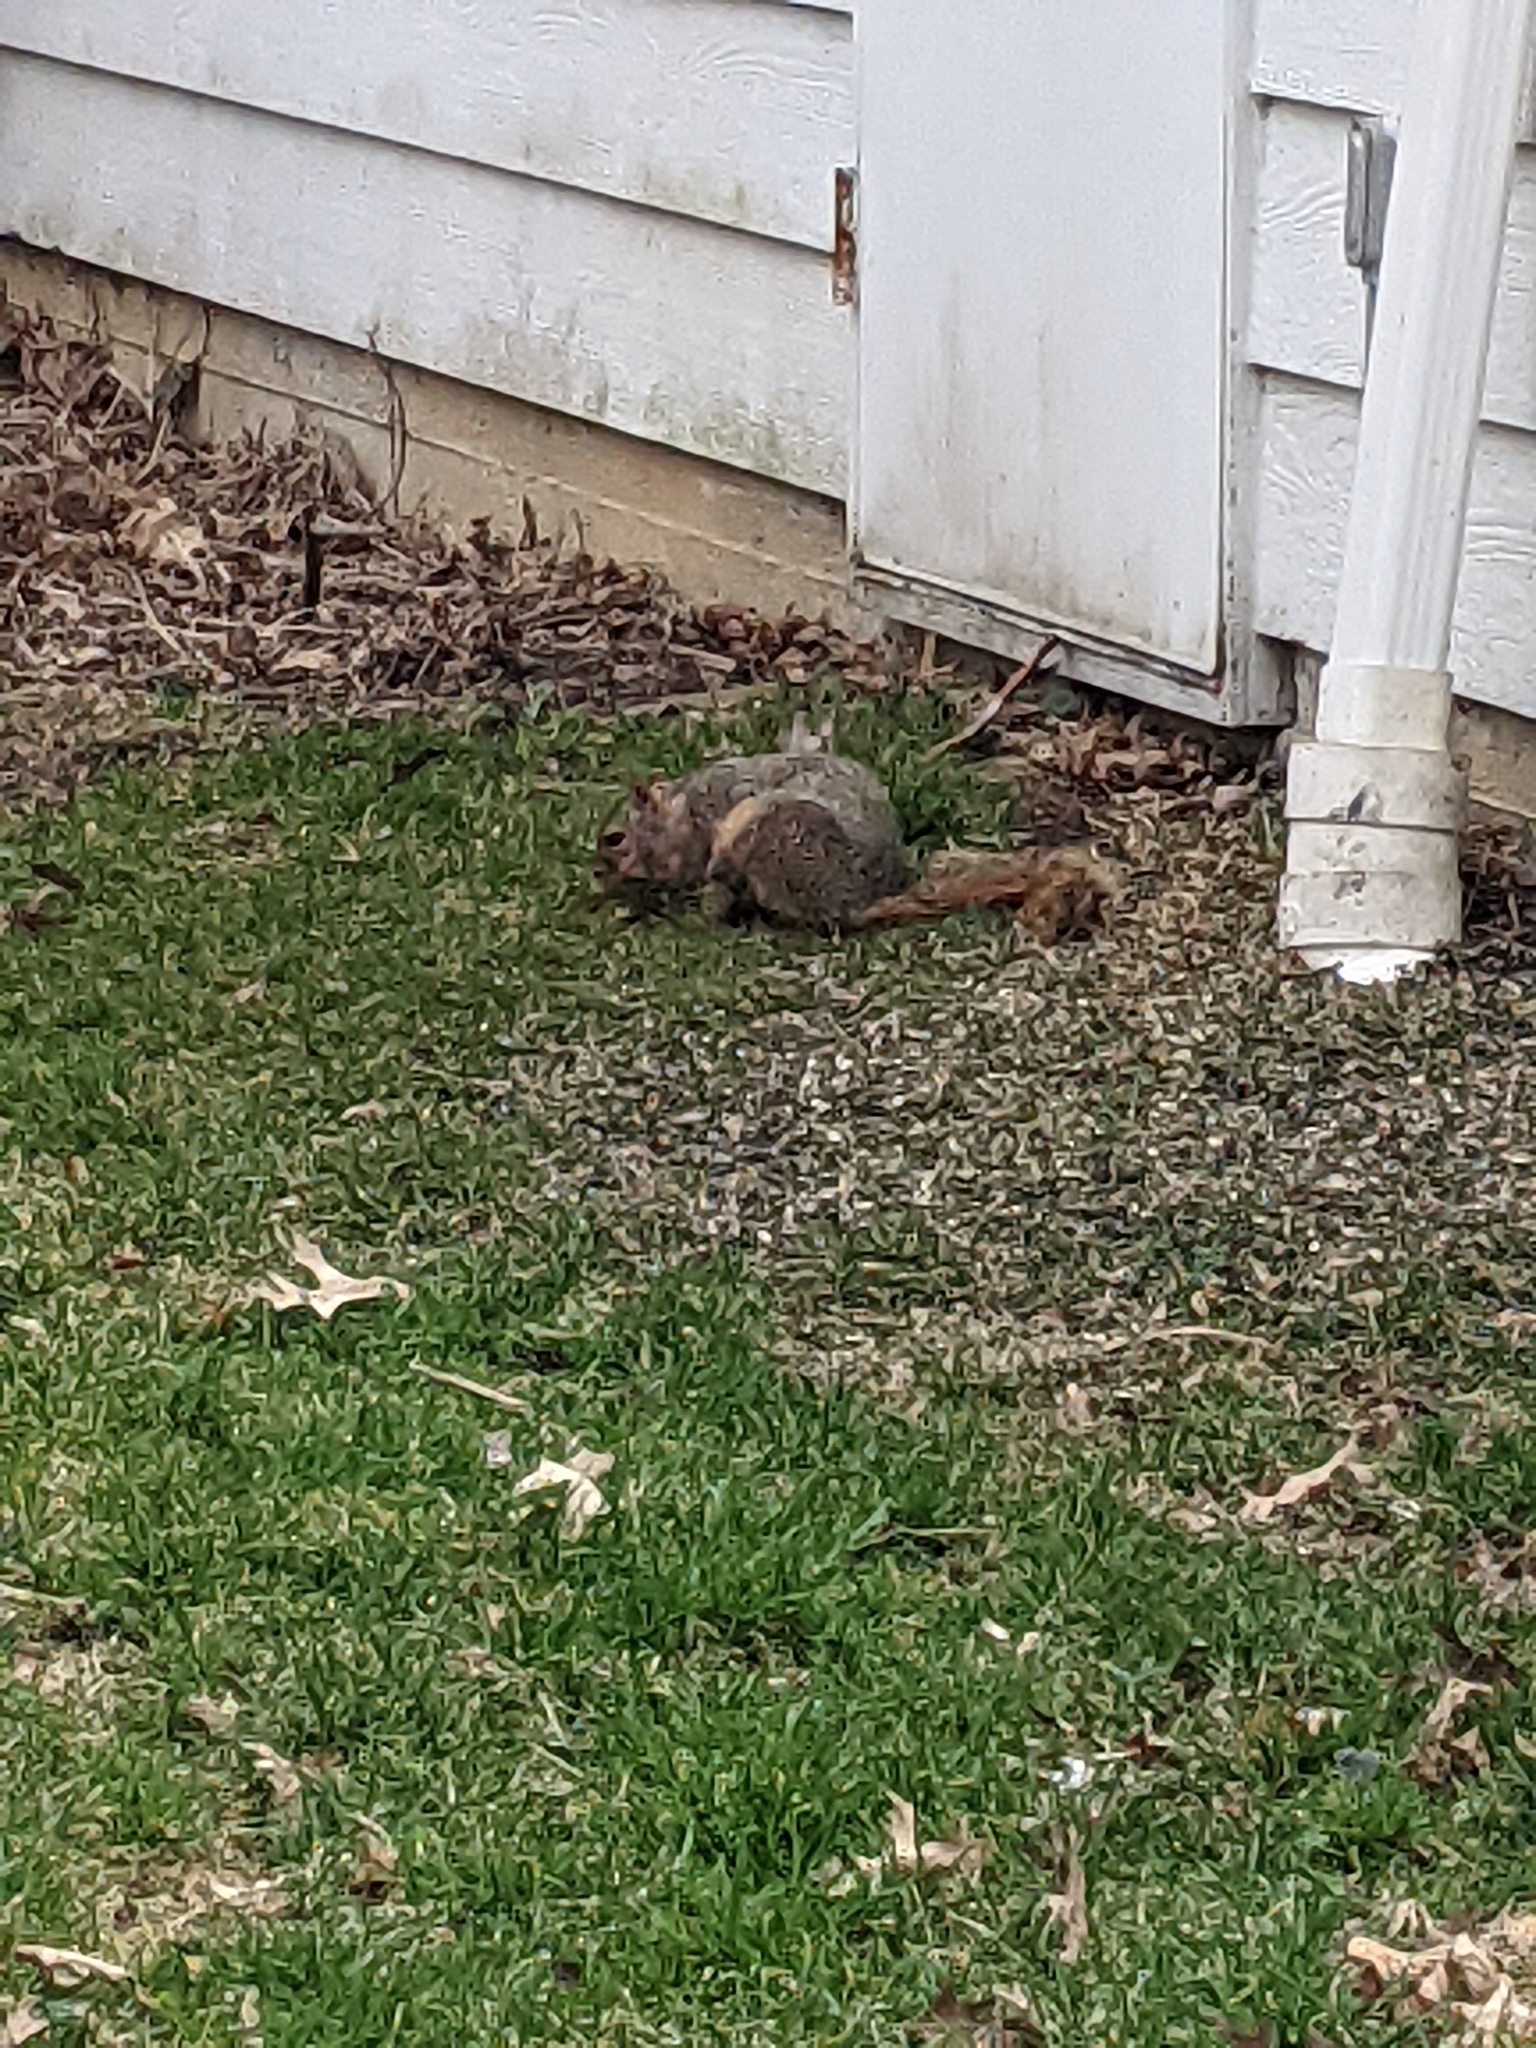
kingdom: Animalia
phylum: Chordata
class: Mammalia
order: Rodentia
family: Sciuridae
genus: Sciurus
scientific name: Sciurus niger
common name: Fox squirrel
